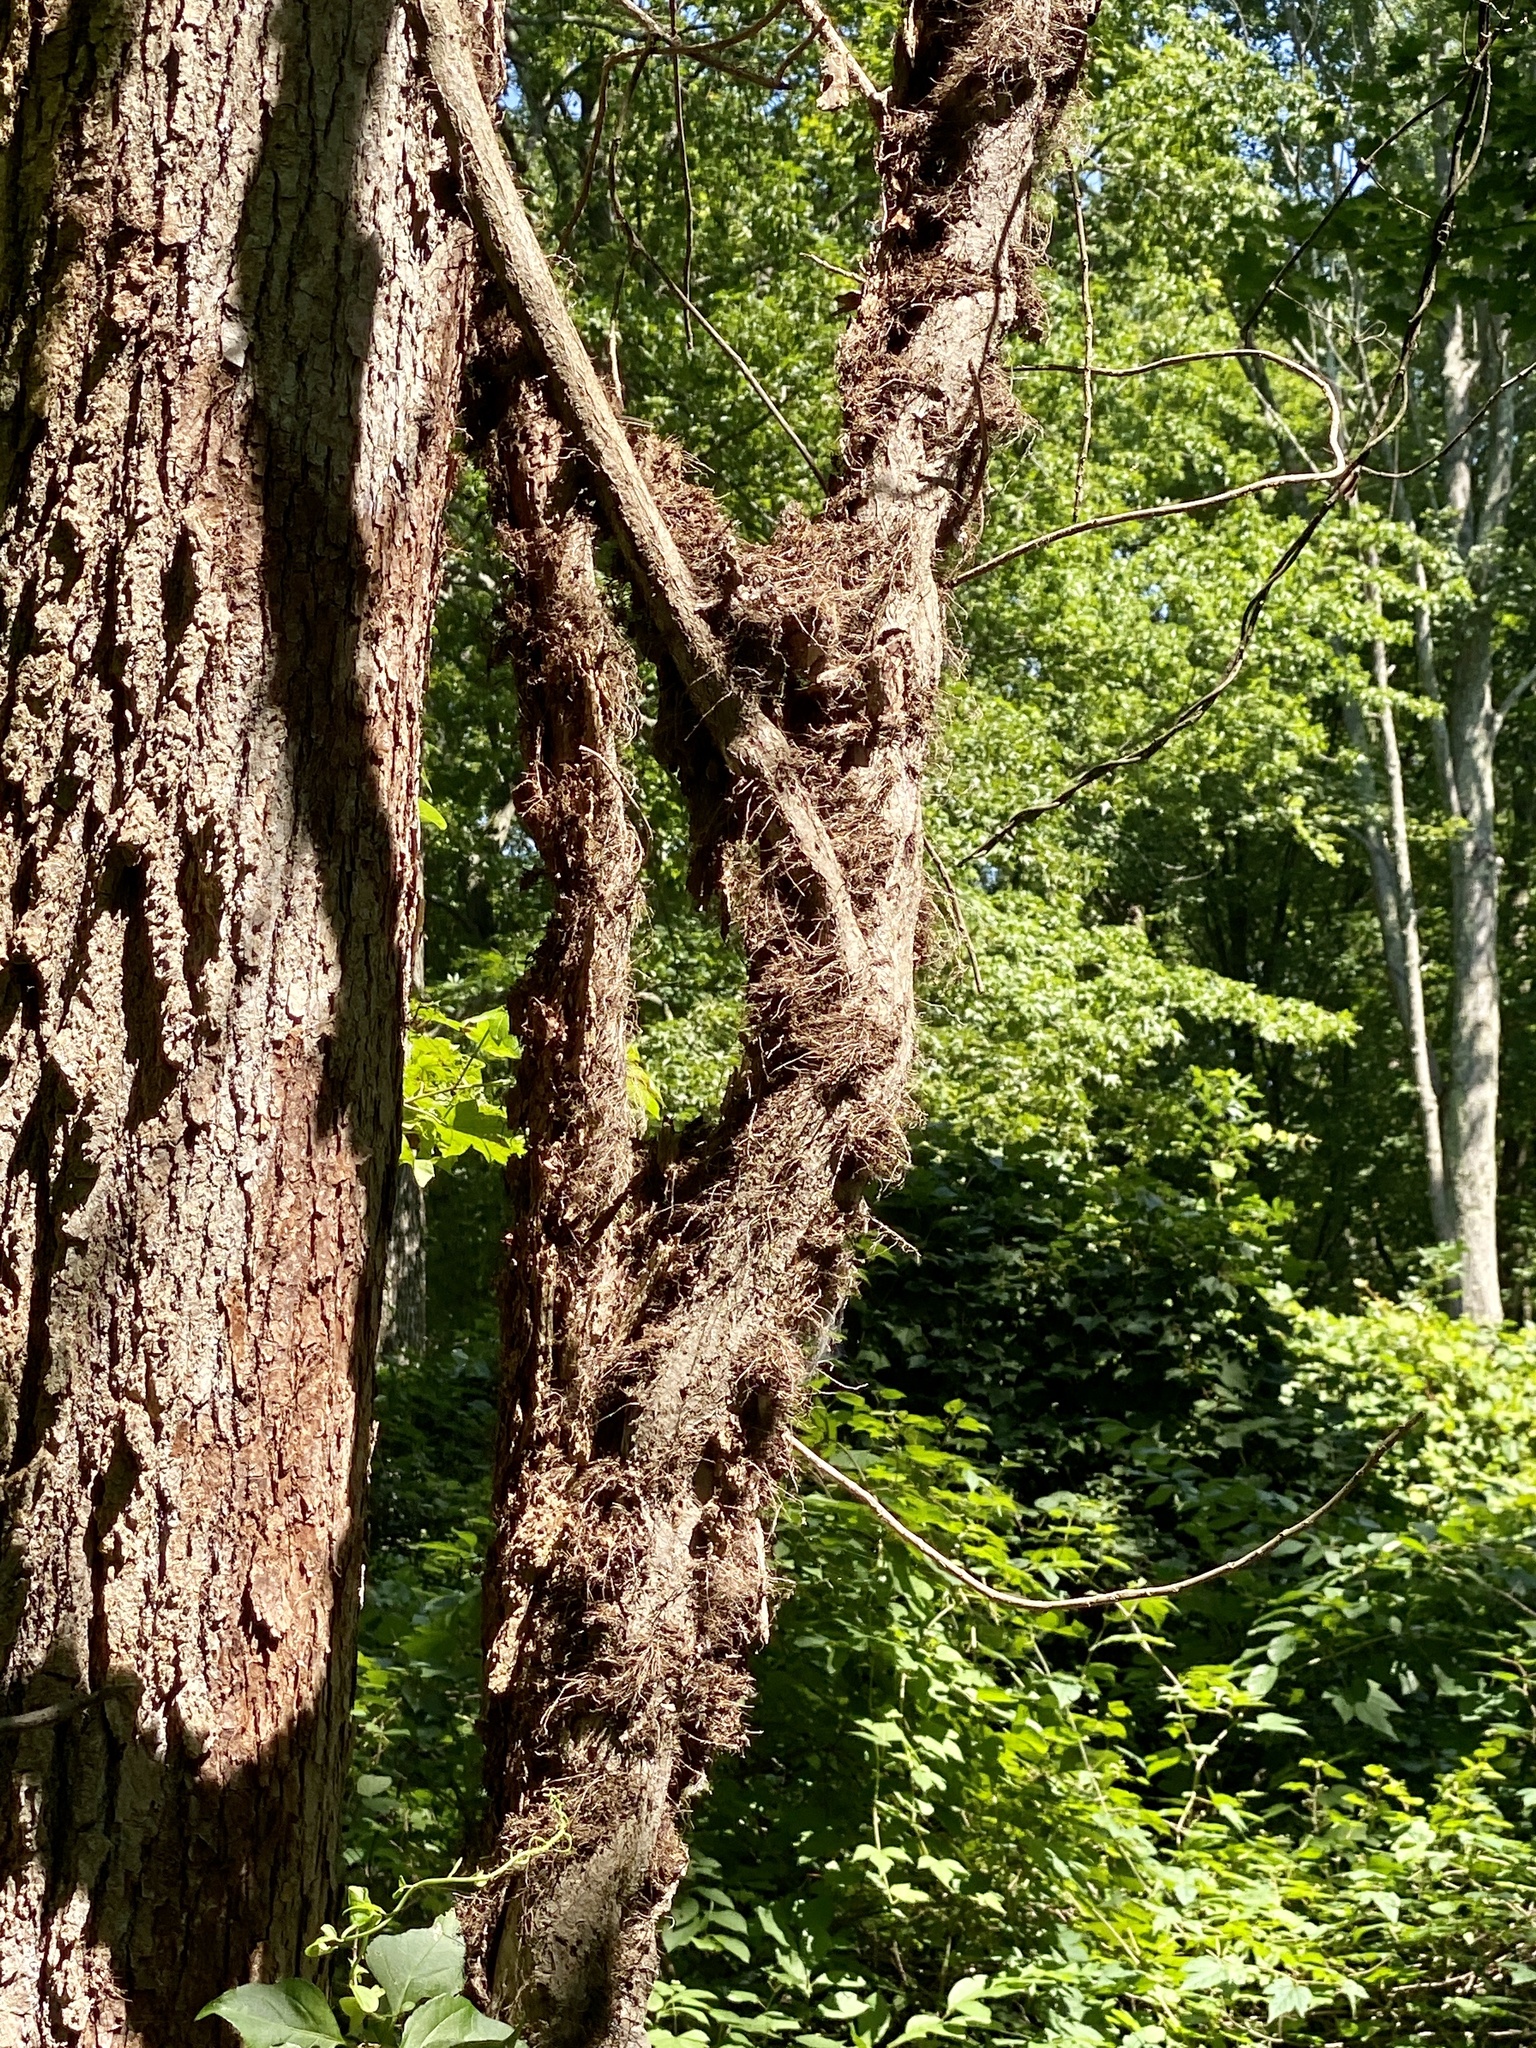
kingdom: Plantae
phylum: Tracheophyta
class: Magnoliopsida
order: Sapindales
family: Anacardiaceae
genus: Toxicodendron
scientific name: Toxicodendron radicans
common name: Poison ivy
